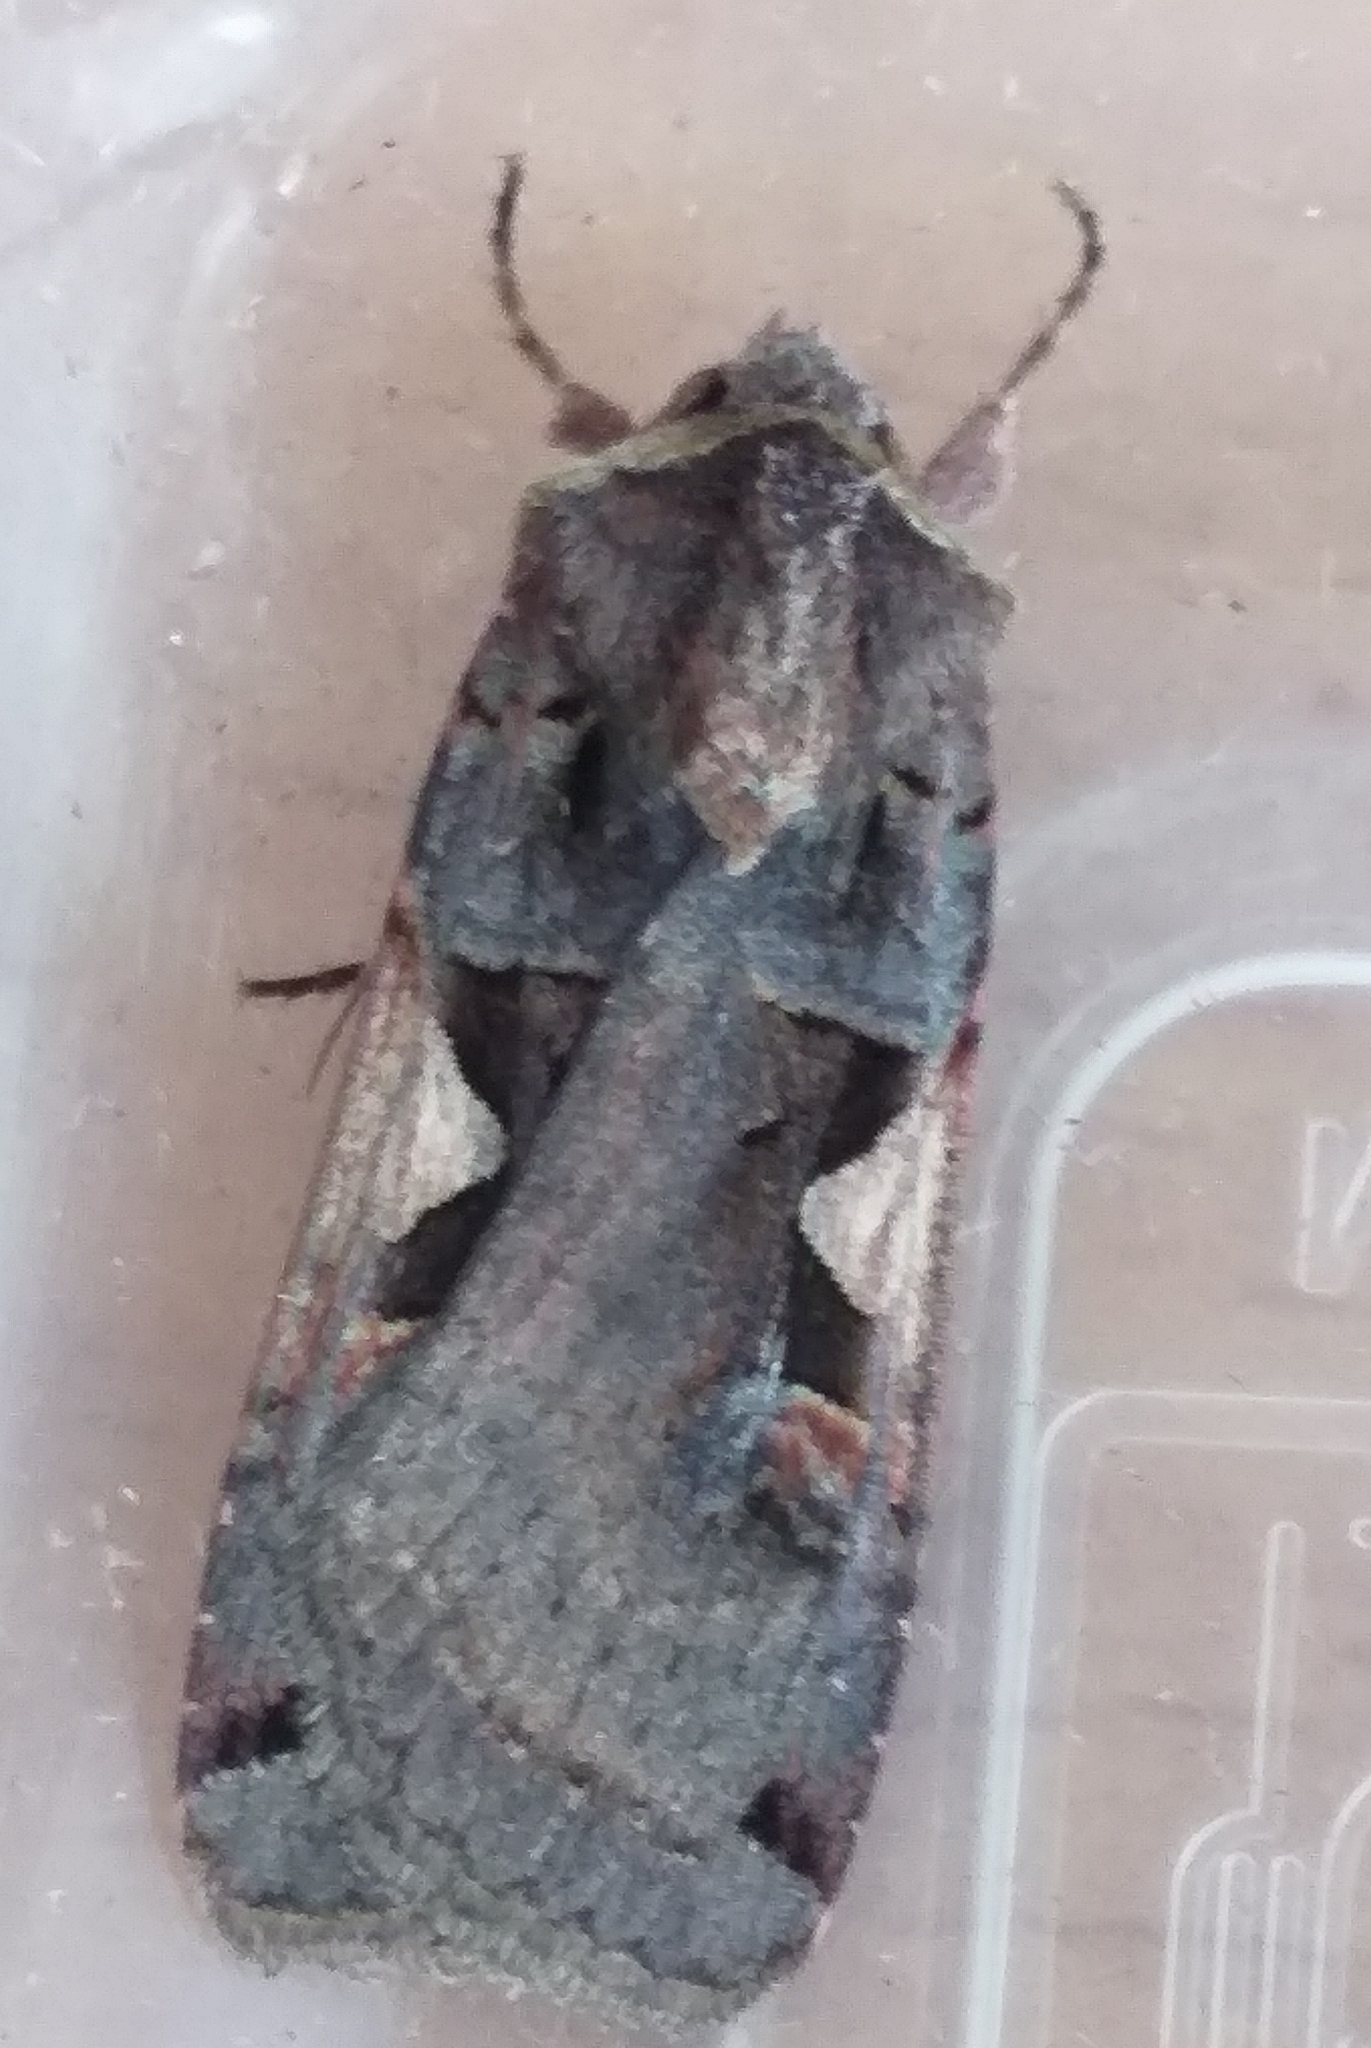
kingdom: Animalia
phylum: Arthropoda
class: Insecta
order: Lepidoptera
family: Noctuidae
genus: Xestia
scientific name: Xestia c-nigrum
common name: Setaceous hebrew character
